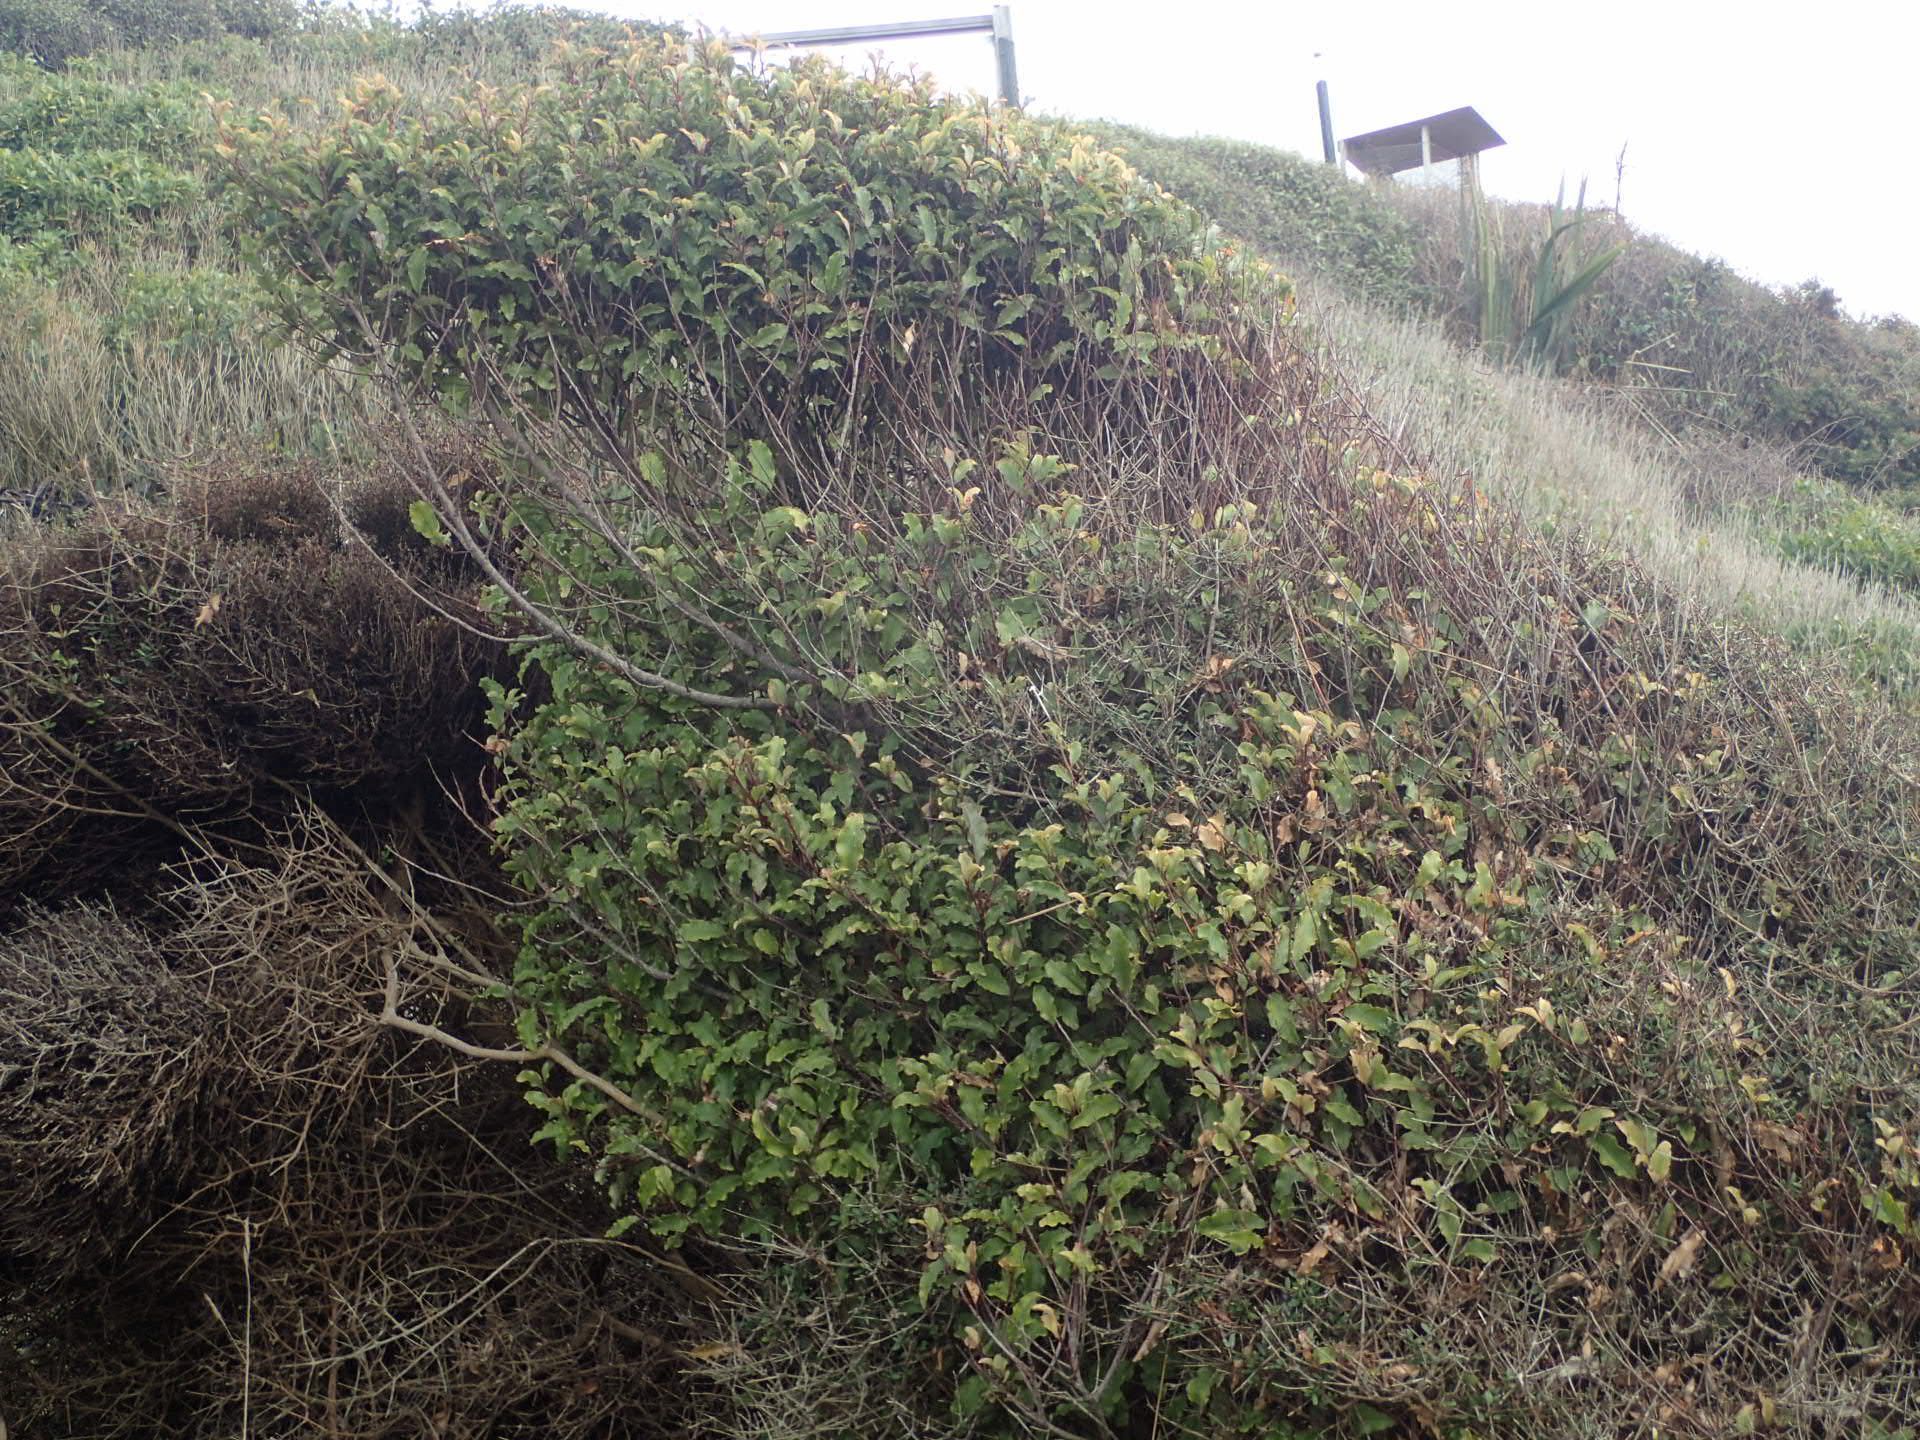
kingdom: Plantae
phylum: Tracheophyta
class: Magnoliopsida
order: Ericales
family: Primulaceae
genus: Myrsine
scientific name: Myrsine australis
